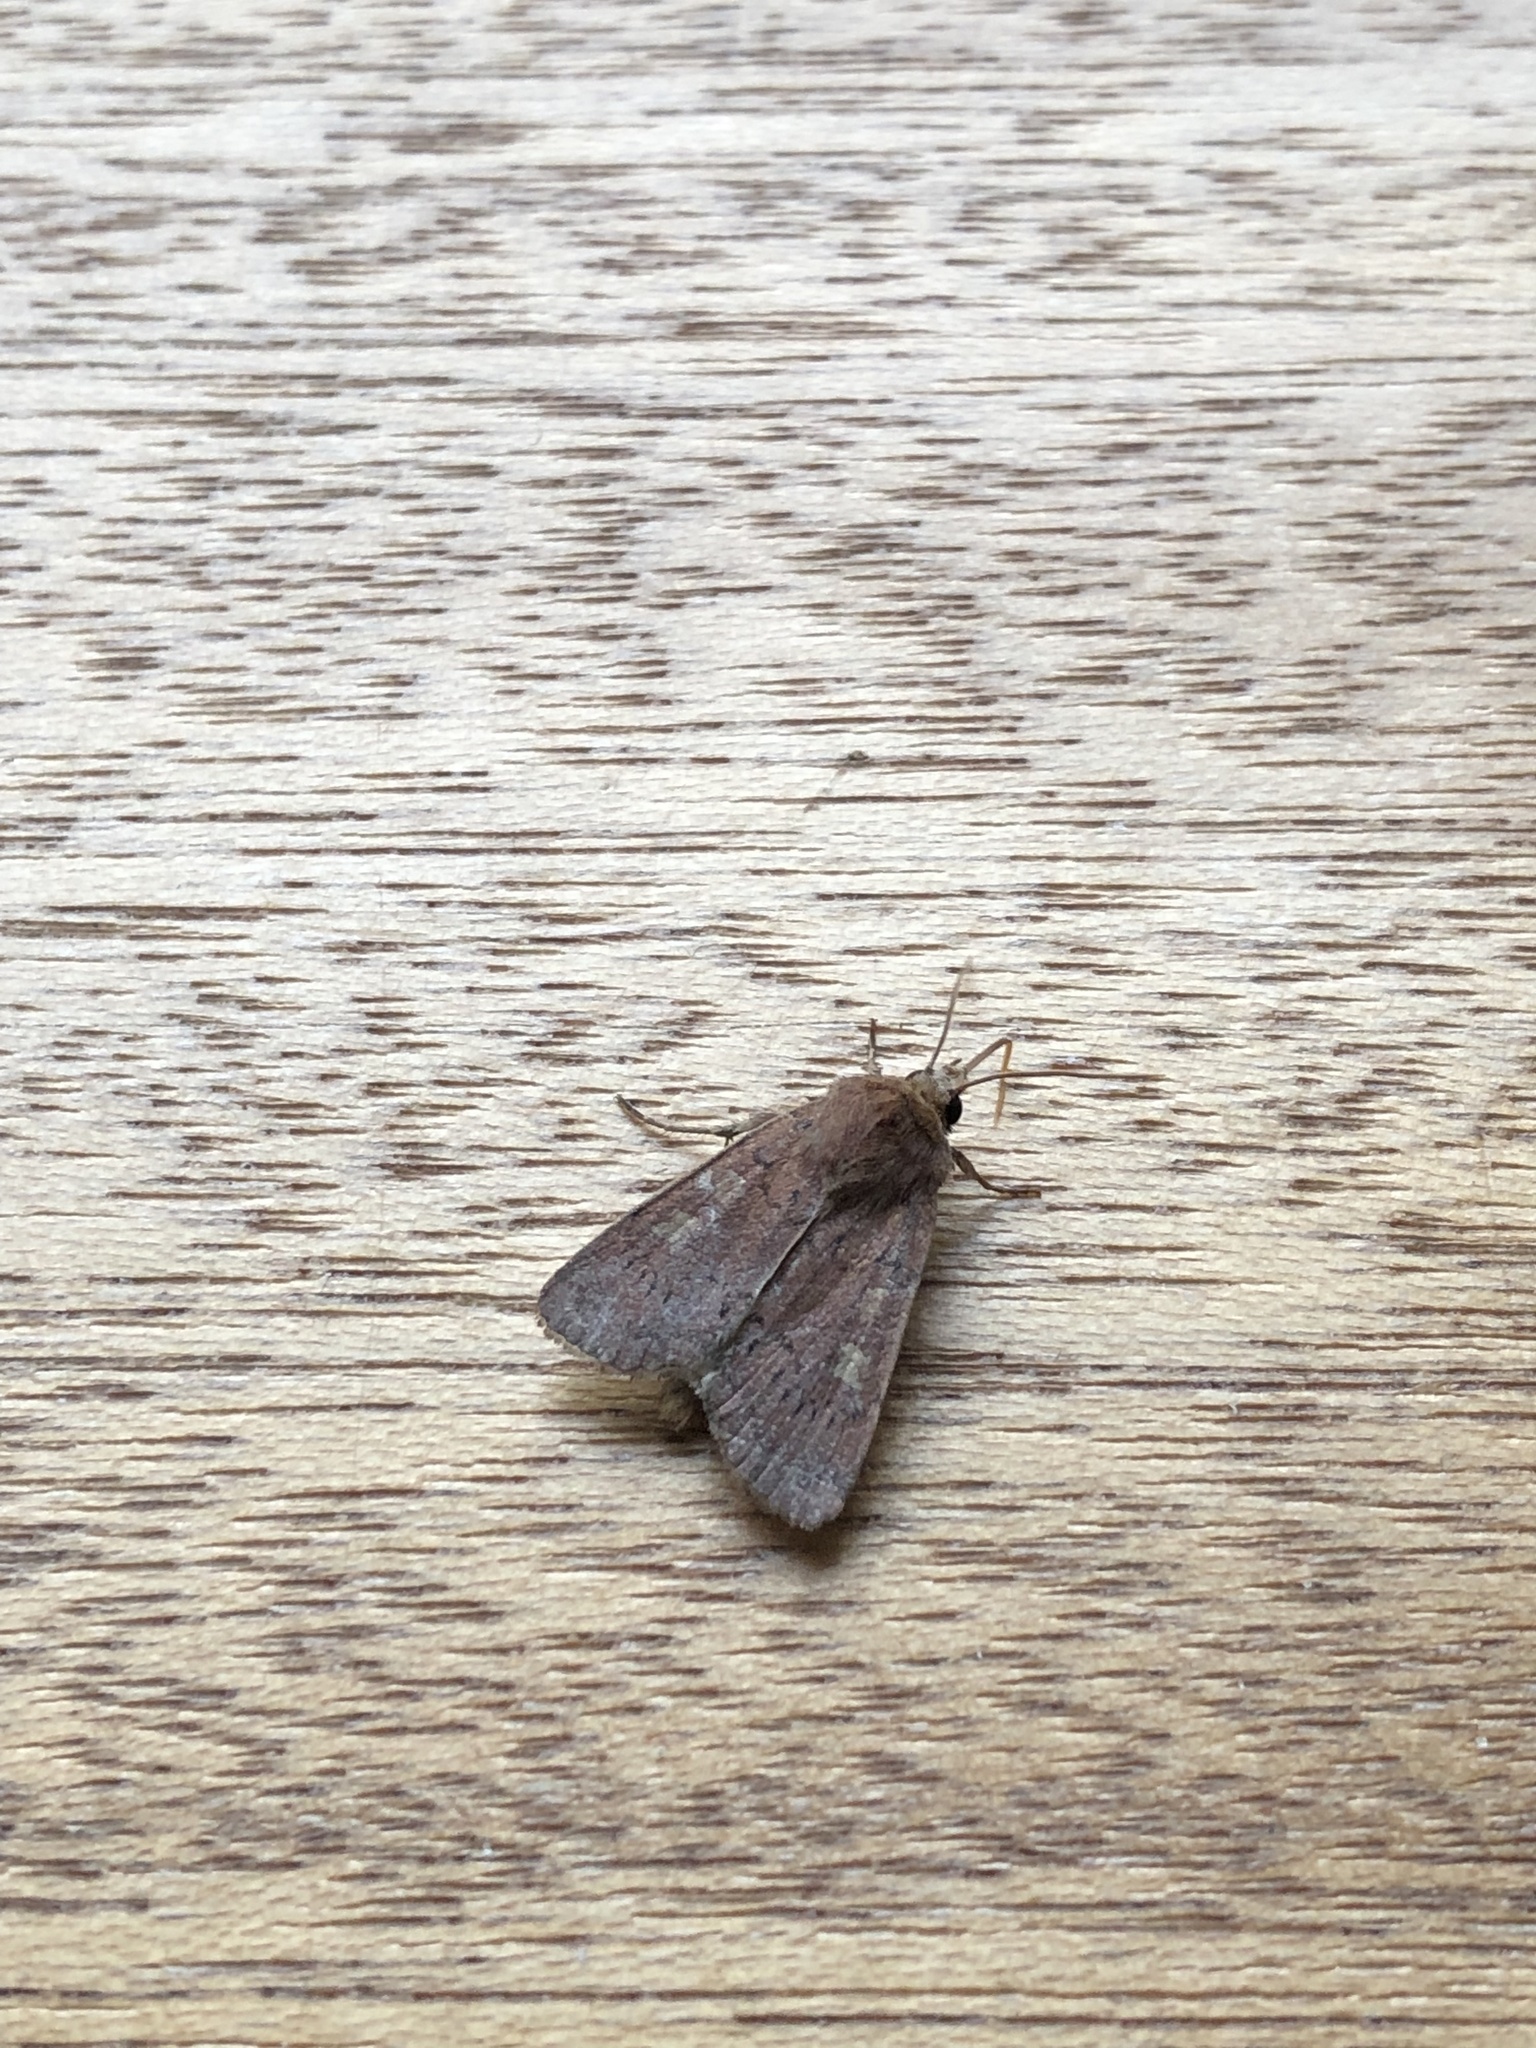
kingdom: Animalia
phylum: Arthropoda
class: Insecta
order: Lepidoptera
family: Noctuidae
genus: Xestia
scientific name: Xestia xanthographa
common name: Square-spot rustic
